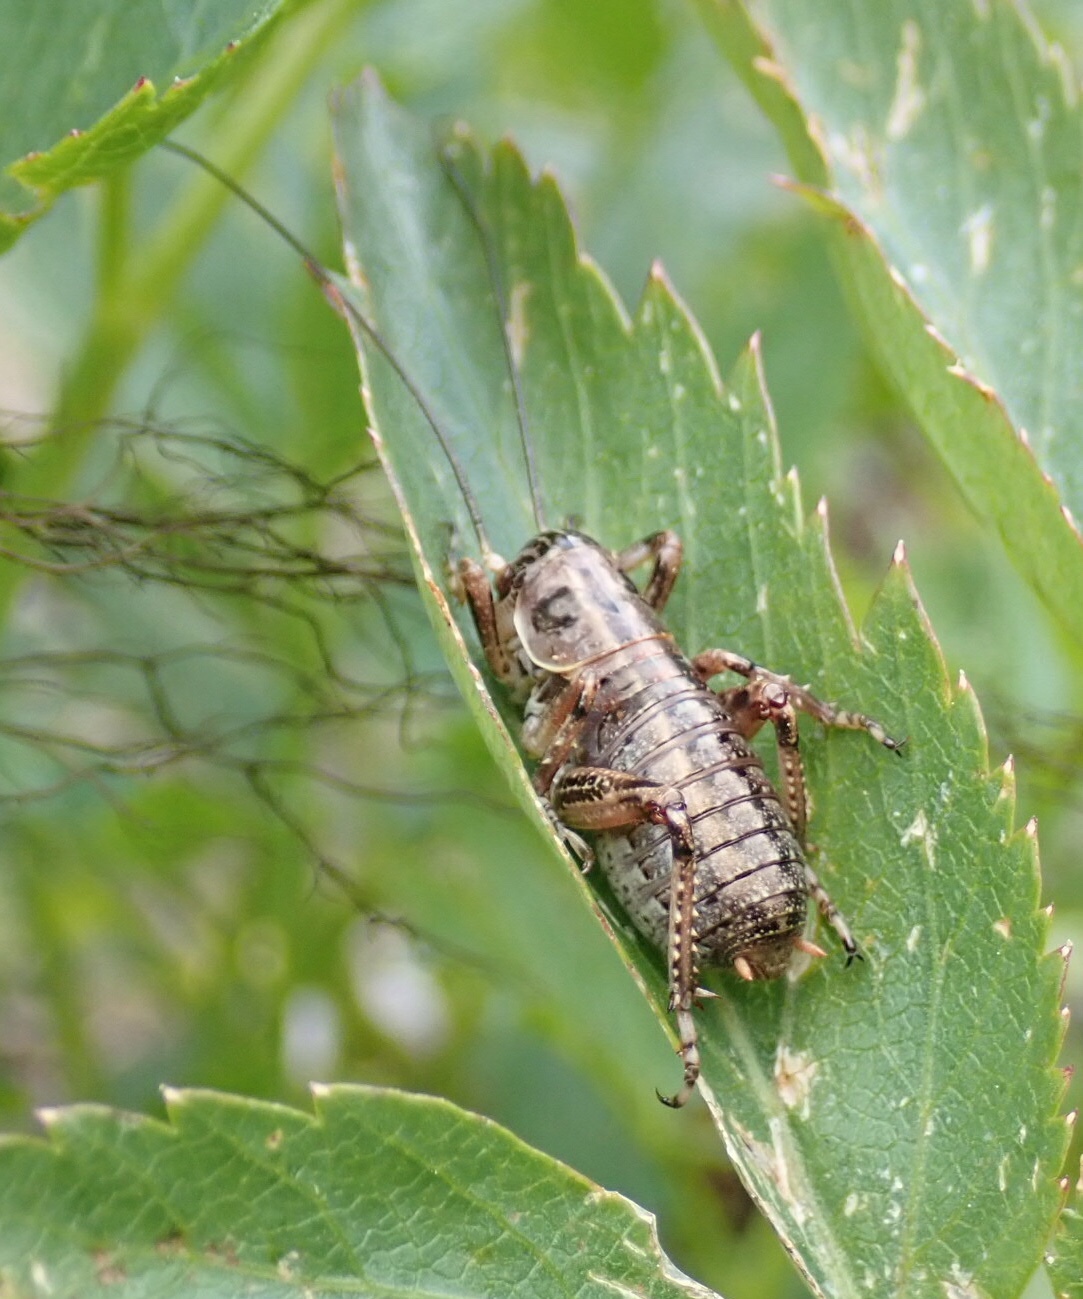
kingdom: Animalia
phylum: Arthropoda
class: Insecta
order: Orthoptera
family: Prophalangopsidae
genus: Cyphoderris
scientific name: Cyphoderris monstrosa
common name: Great grig
